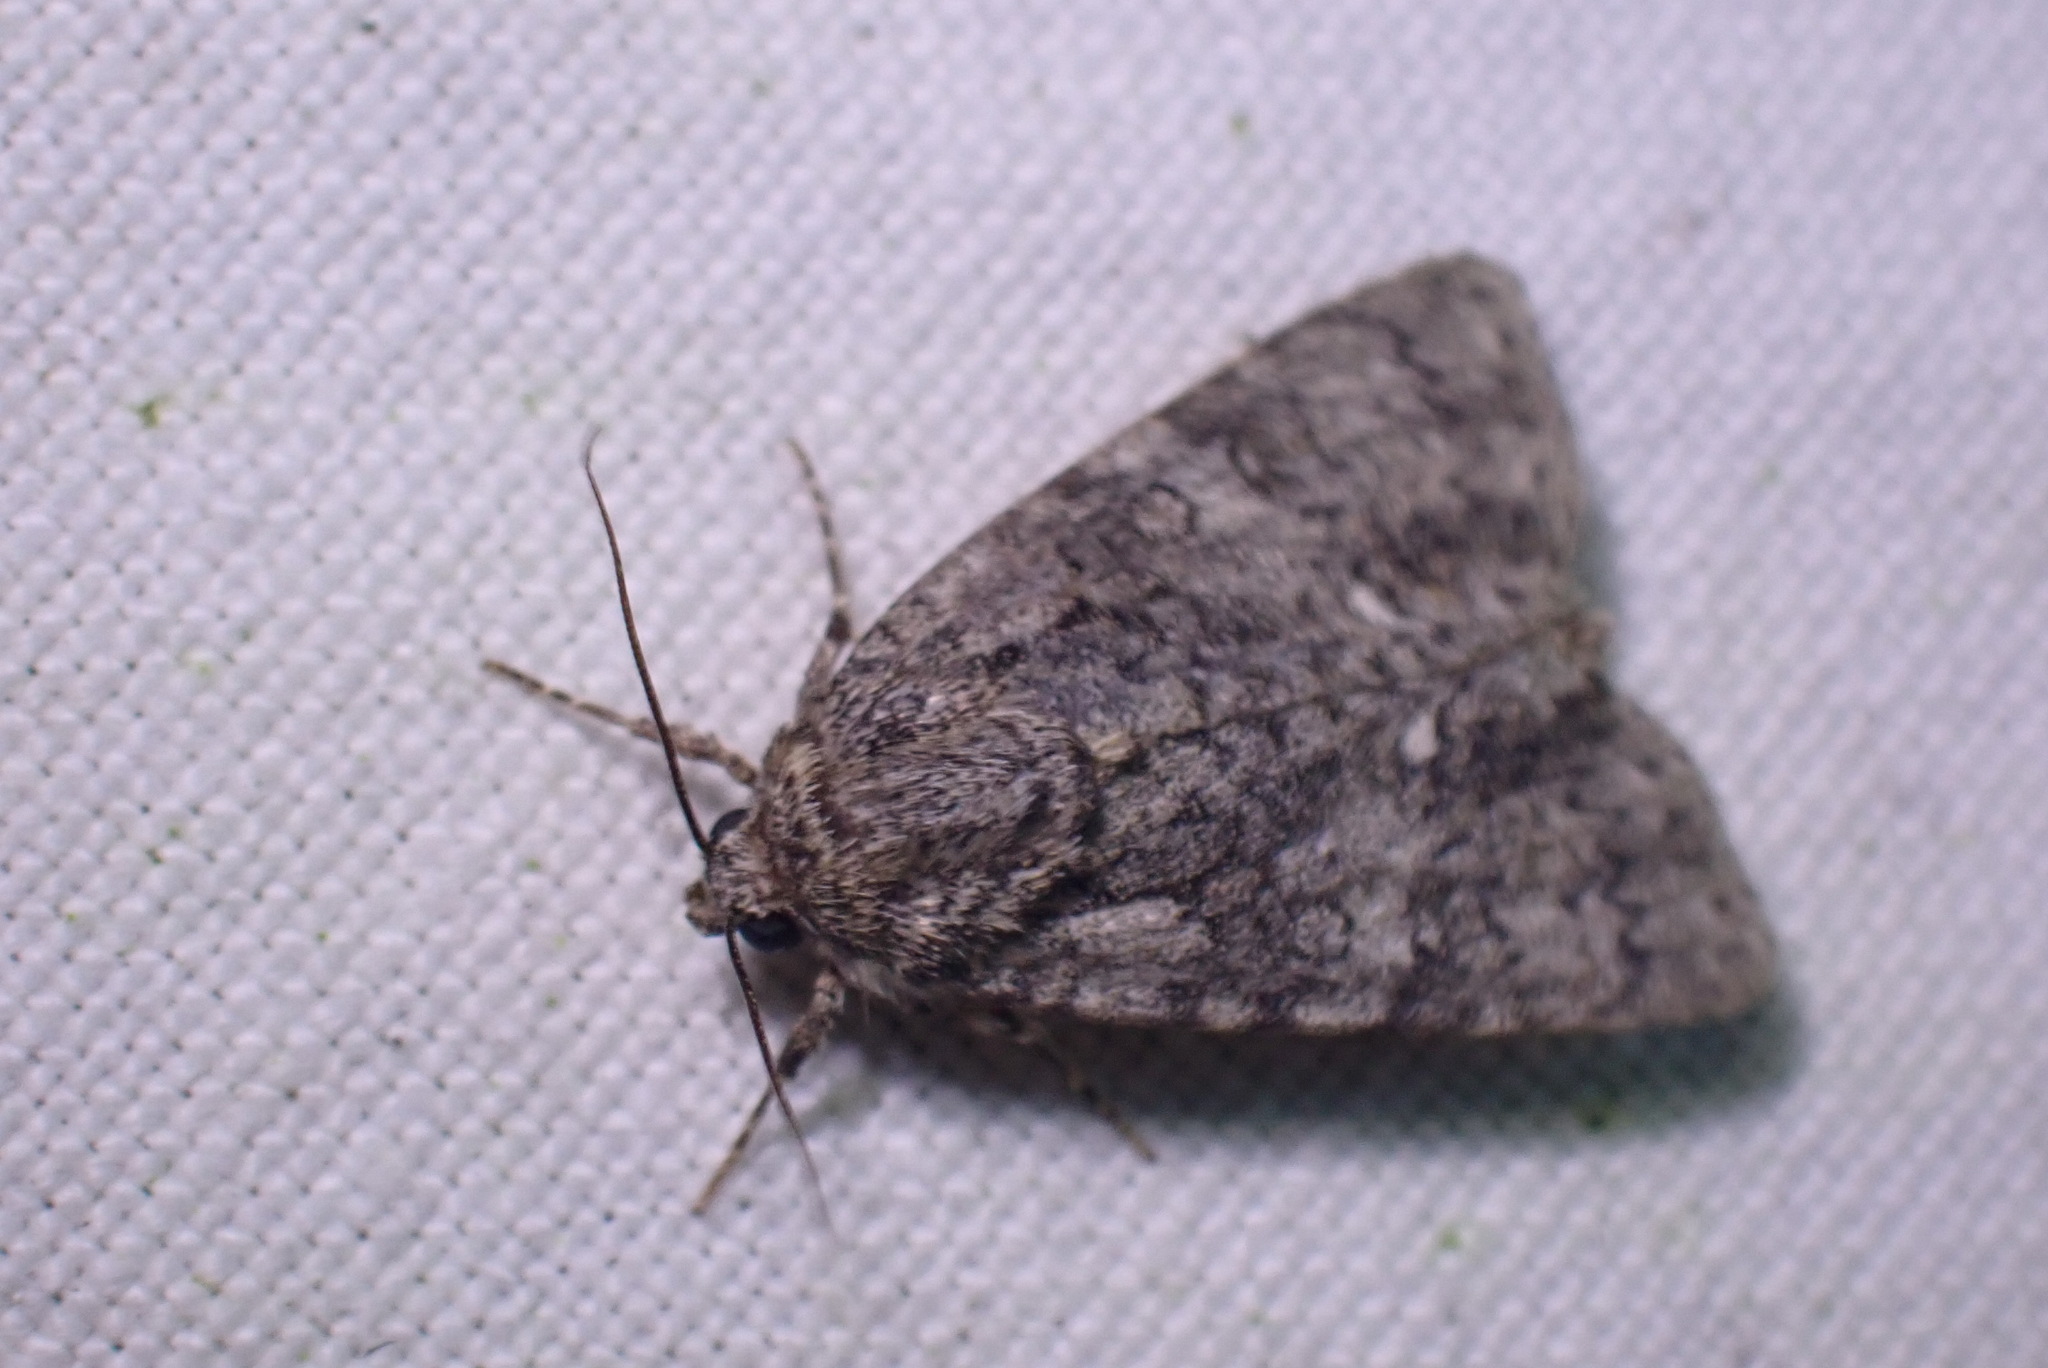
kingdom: Animalia
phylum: Arthropoda
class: Insecta
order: Lepidoptera
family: Noctuidae
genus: Acronicta
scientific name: Acronicta rumicis
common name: Knot grass
